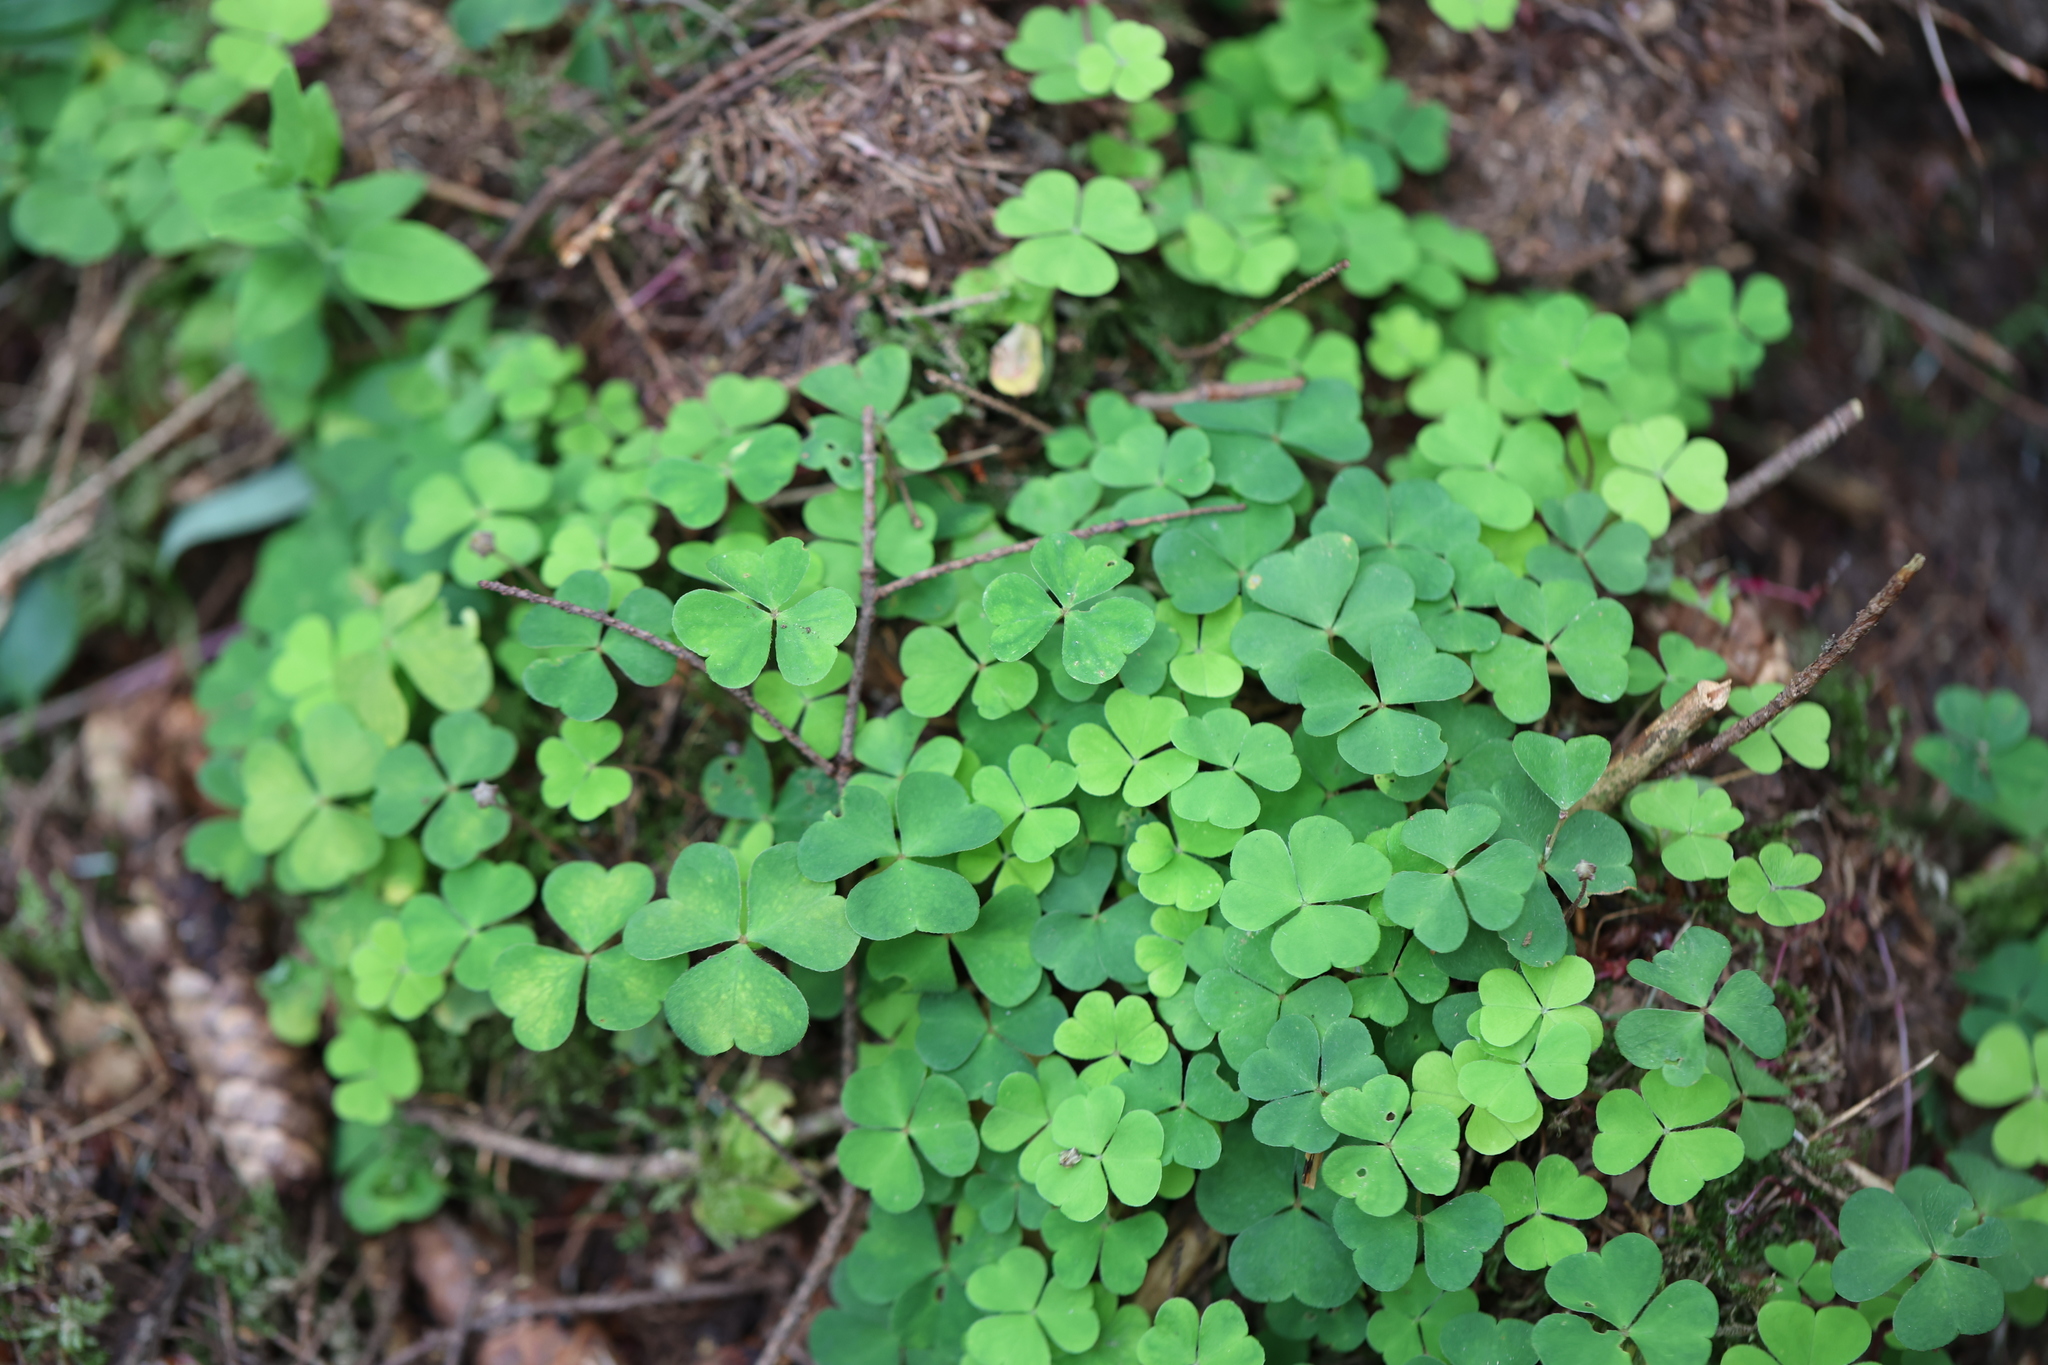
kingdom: Plantae
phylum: Tracheophyta
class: Magnoliopsida
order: Oxalidales
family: Oxalidaceae
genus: Oxalis
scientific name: Oxalis acetosella
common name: Wood-sorrel
